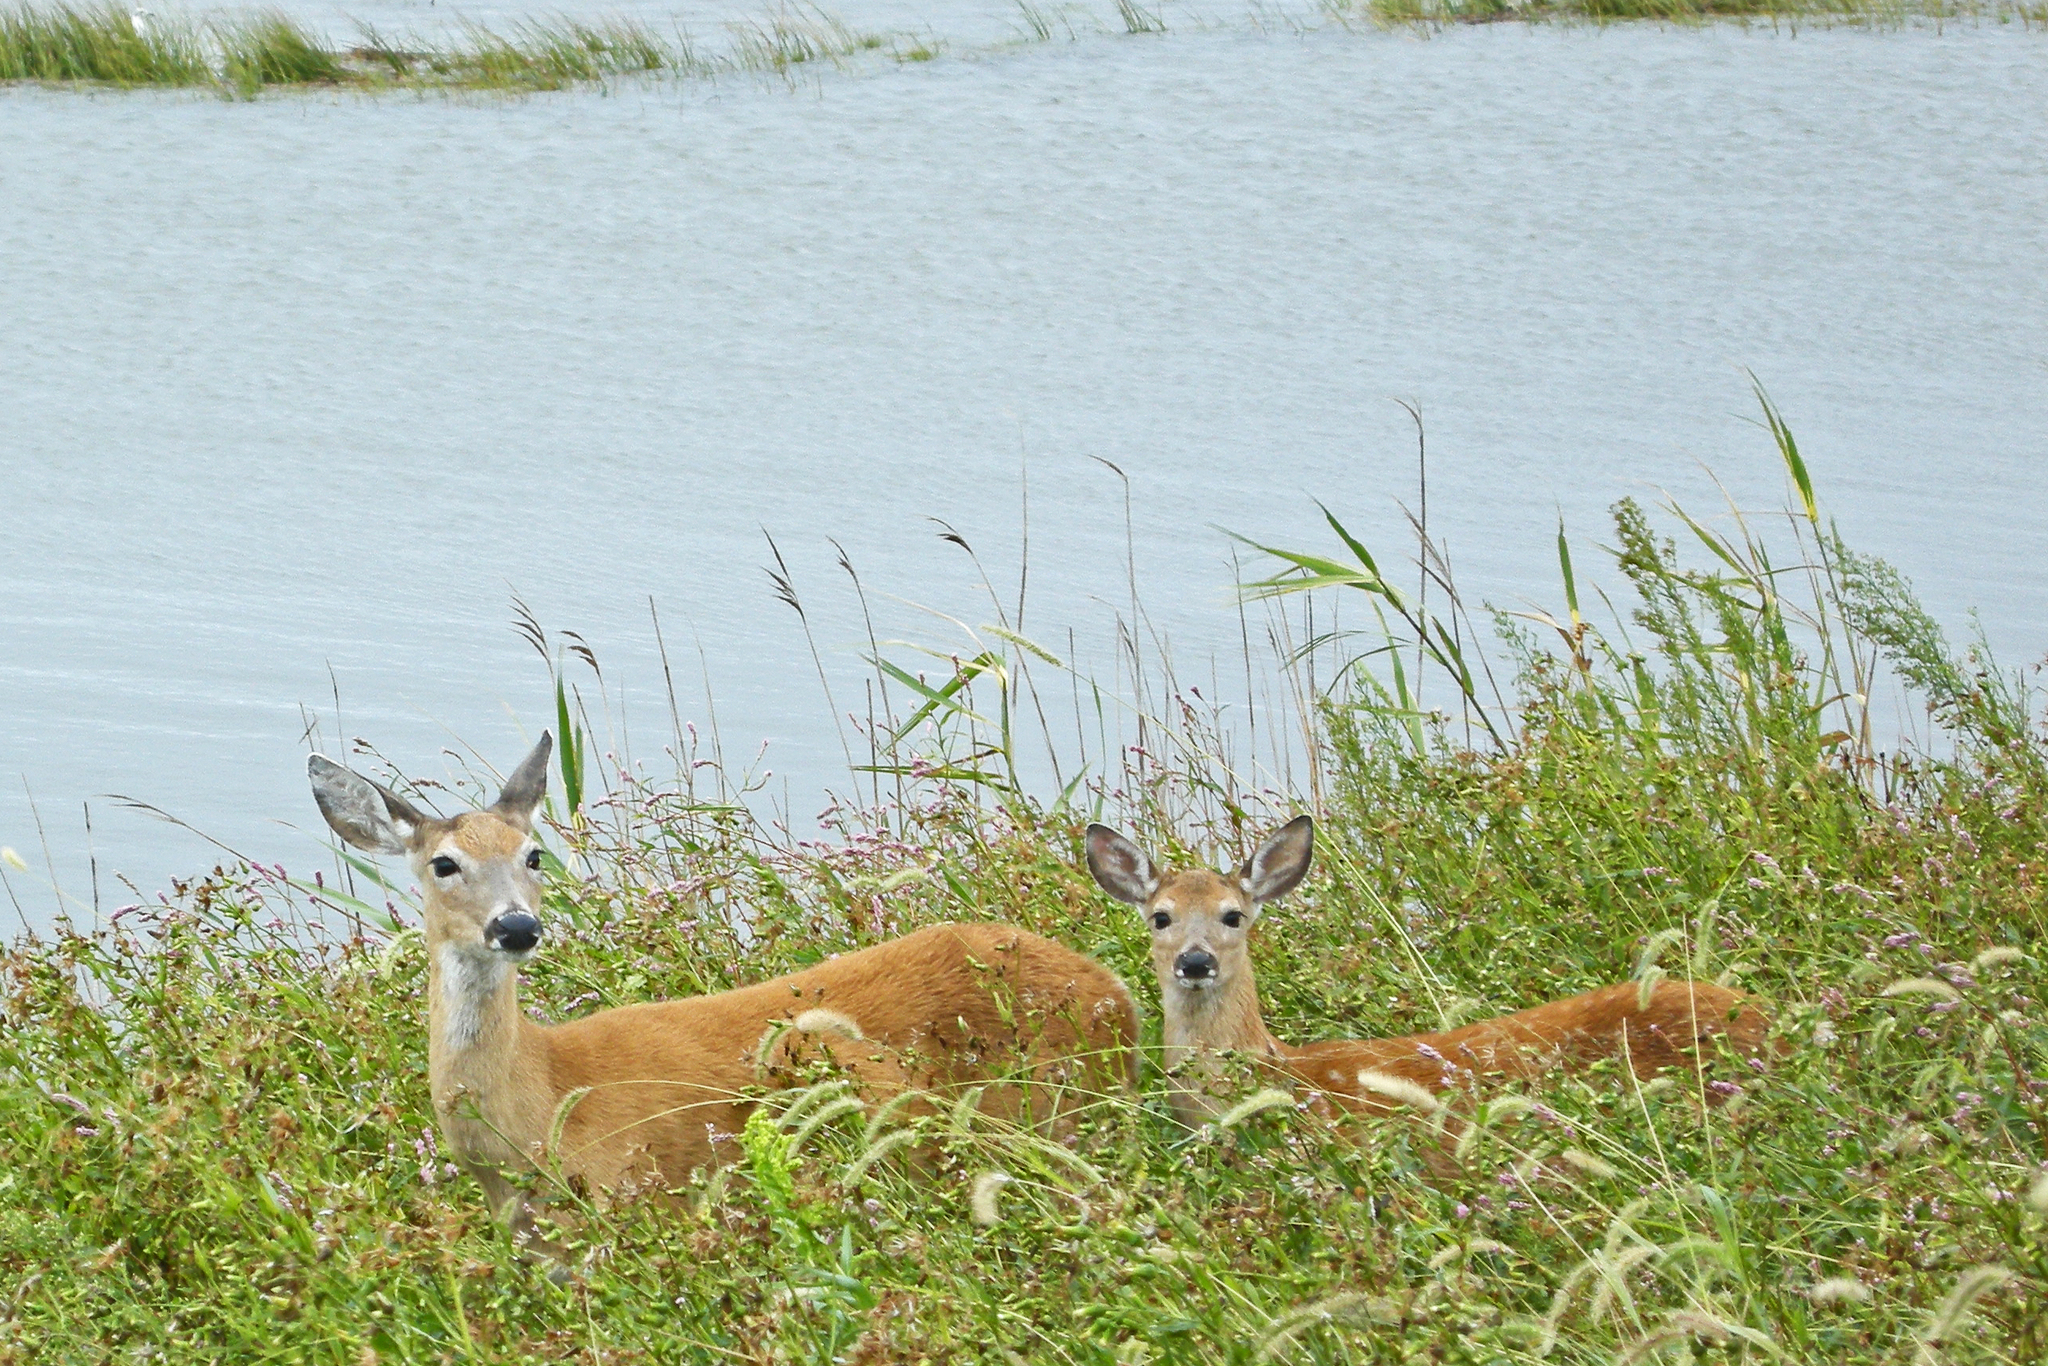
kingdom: Animalia
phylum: Chordata
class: Mammalia
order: Artiodactyla
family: Cervidae
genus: Odocoileus
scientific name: Odocoileus virginianus
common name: White-tailed deer
